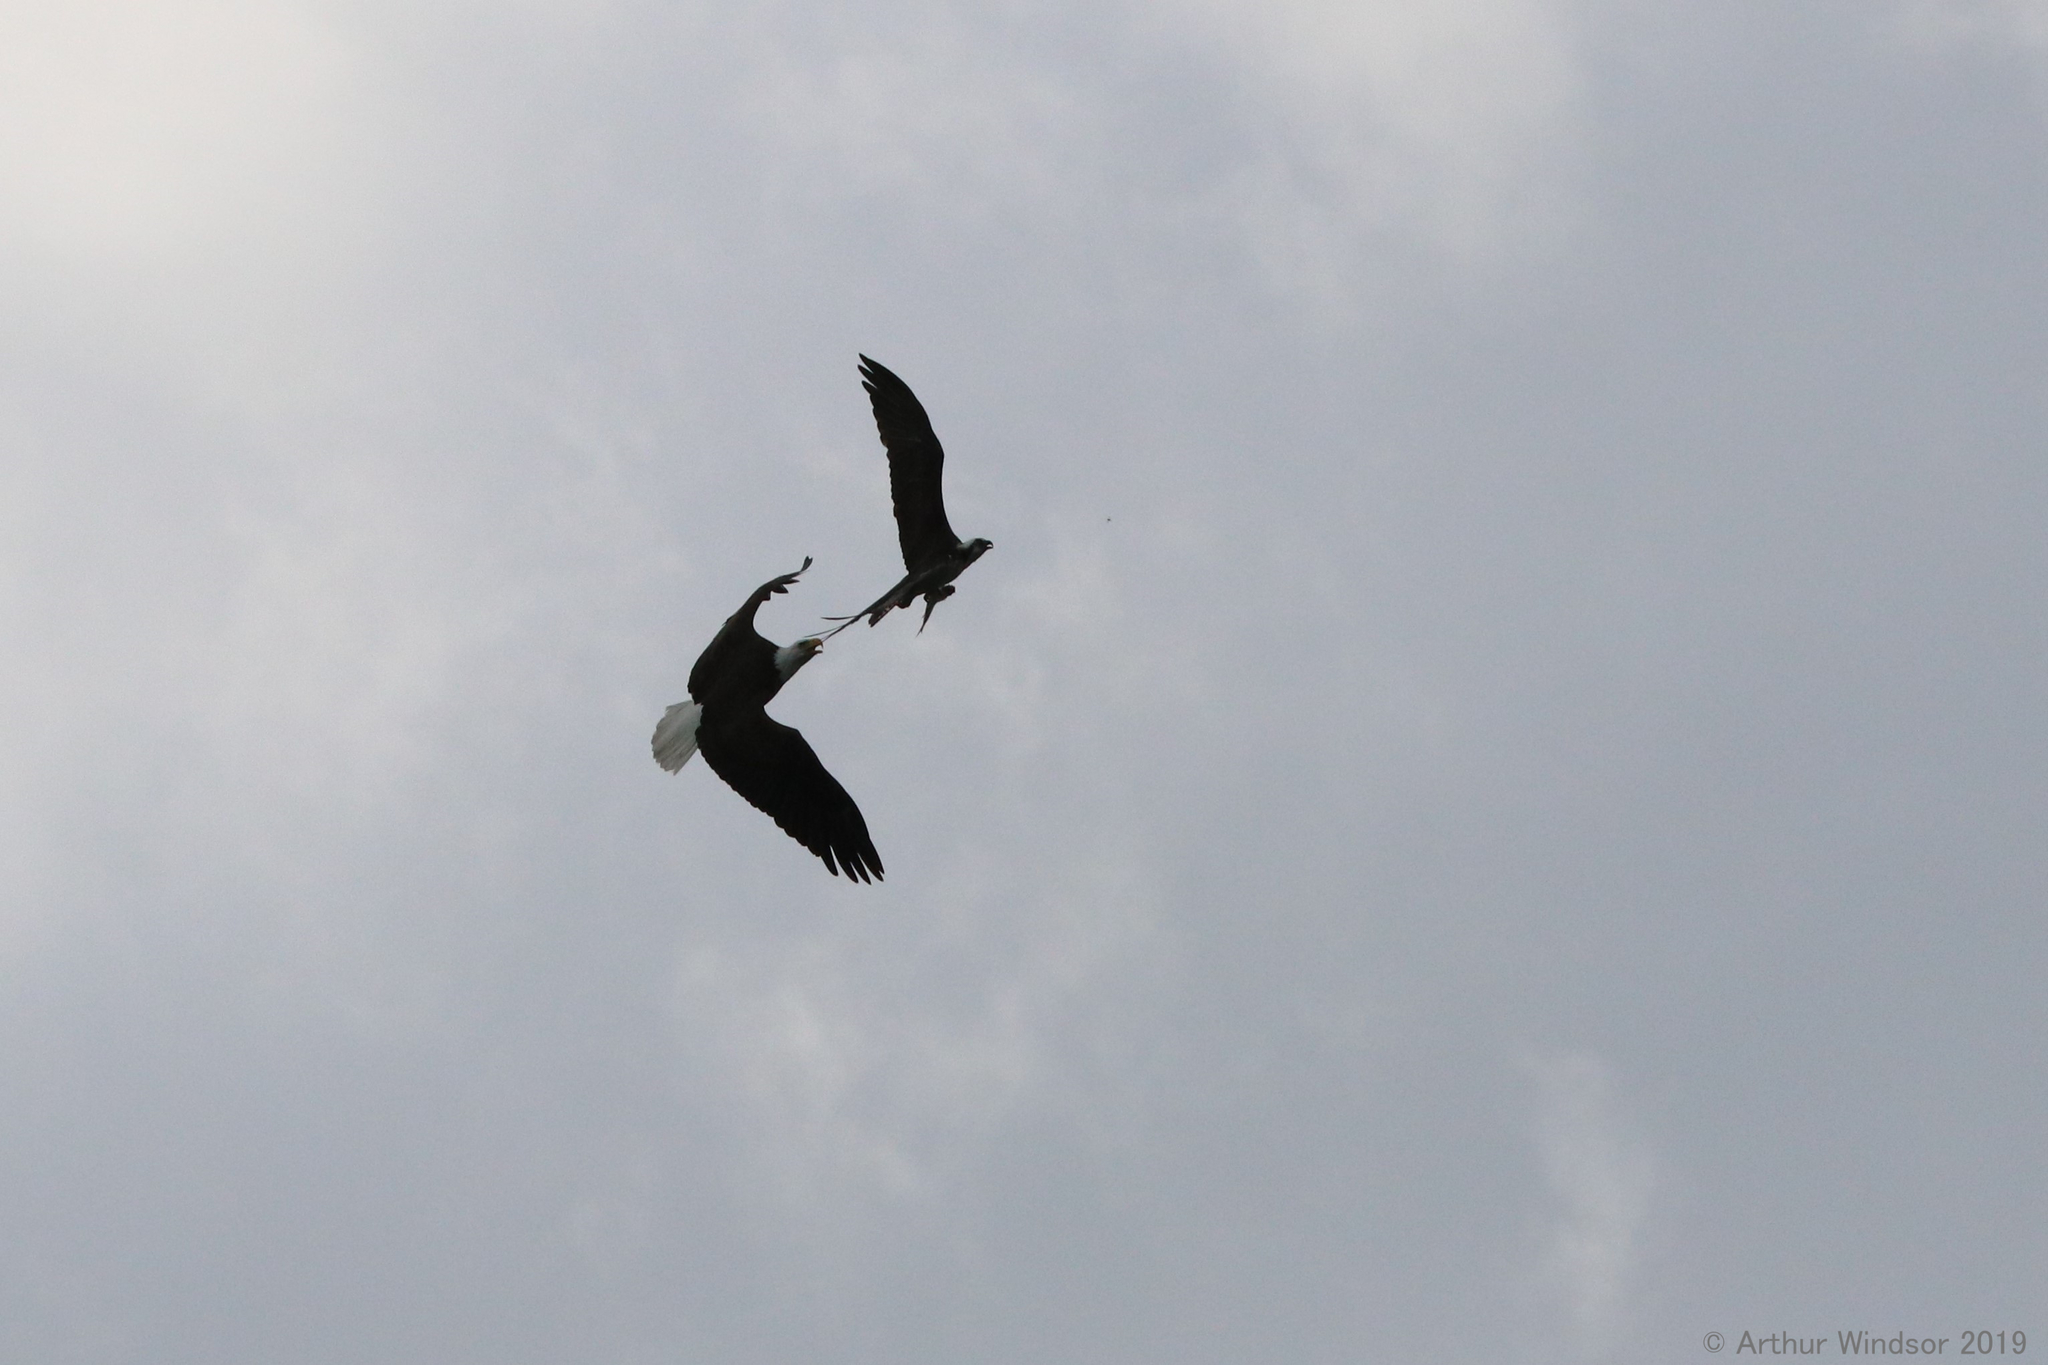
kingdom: Animalia
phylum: Chordata
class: Aves
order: Accipitriformes
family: Accipitridae
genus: Haliaeetus
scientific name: Haliaeetus leucocephalus
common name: Bald eagle
